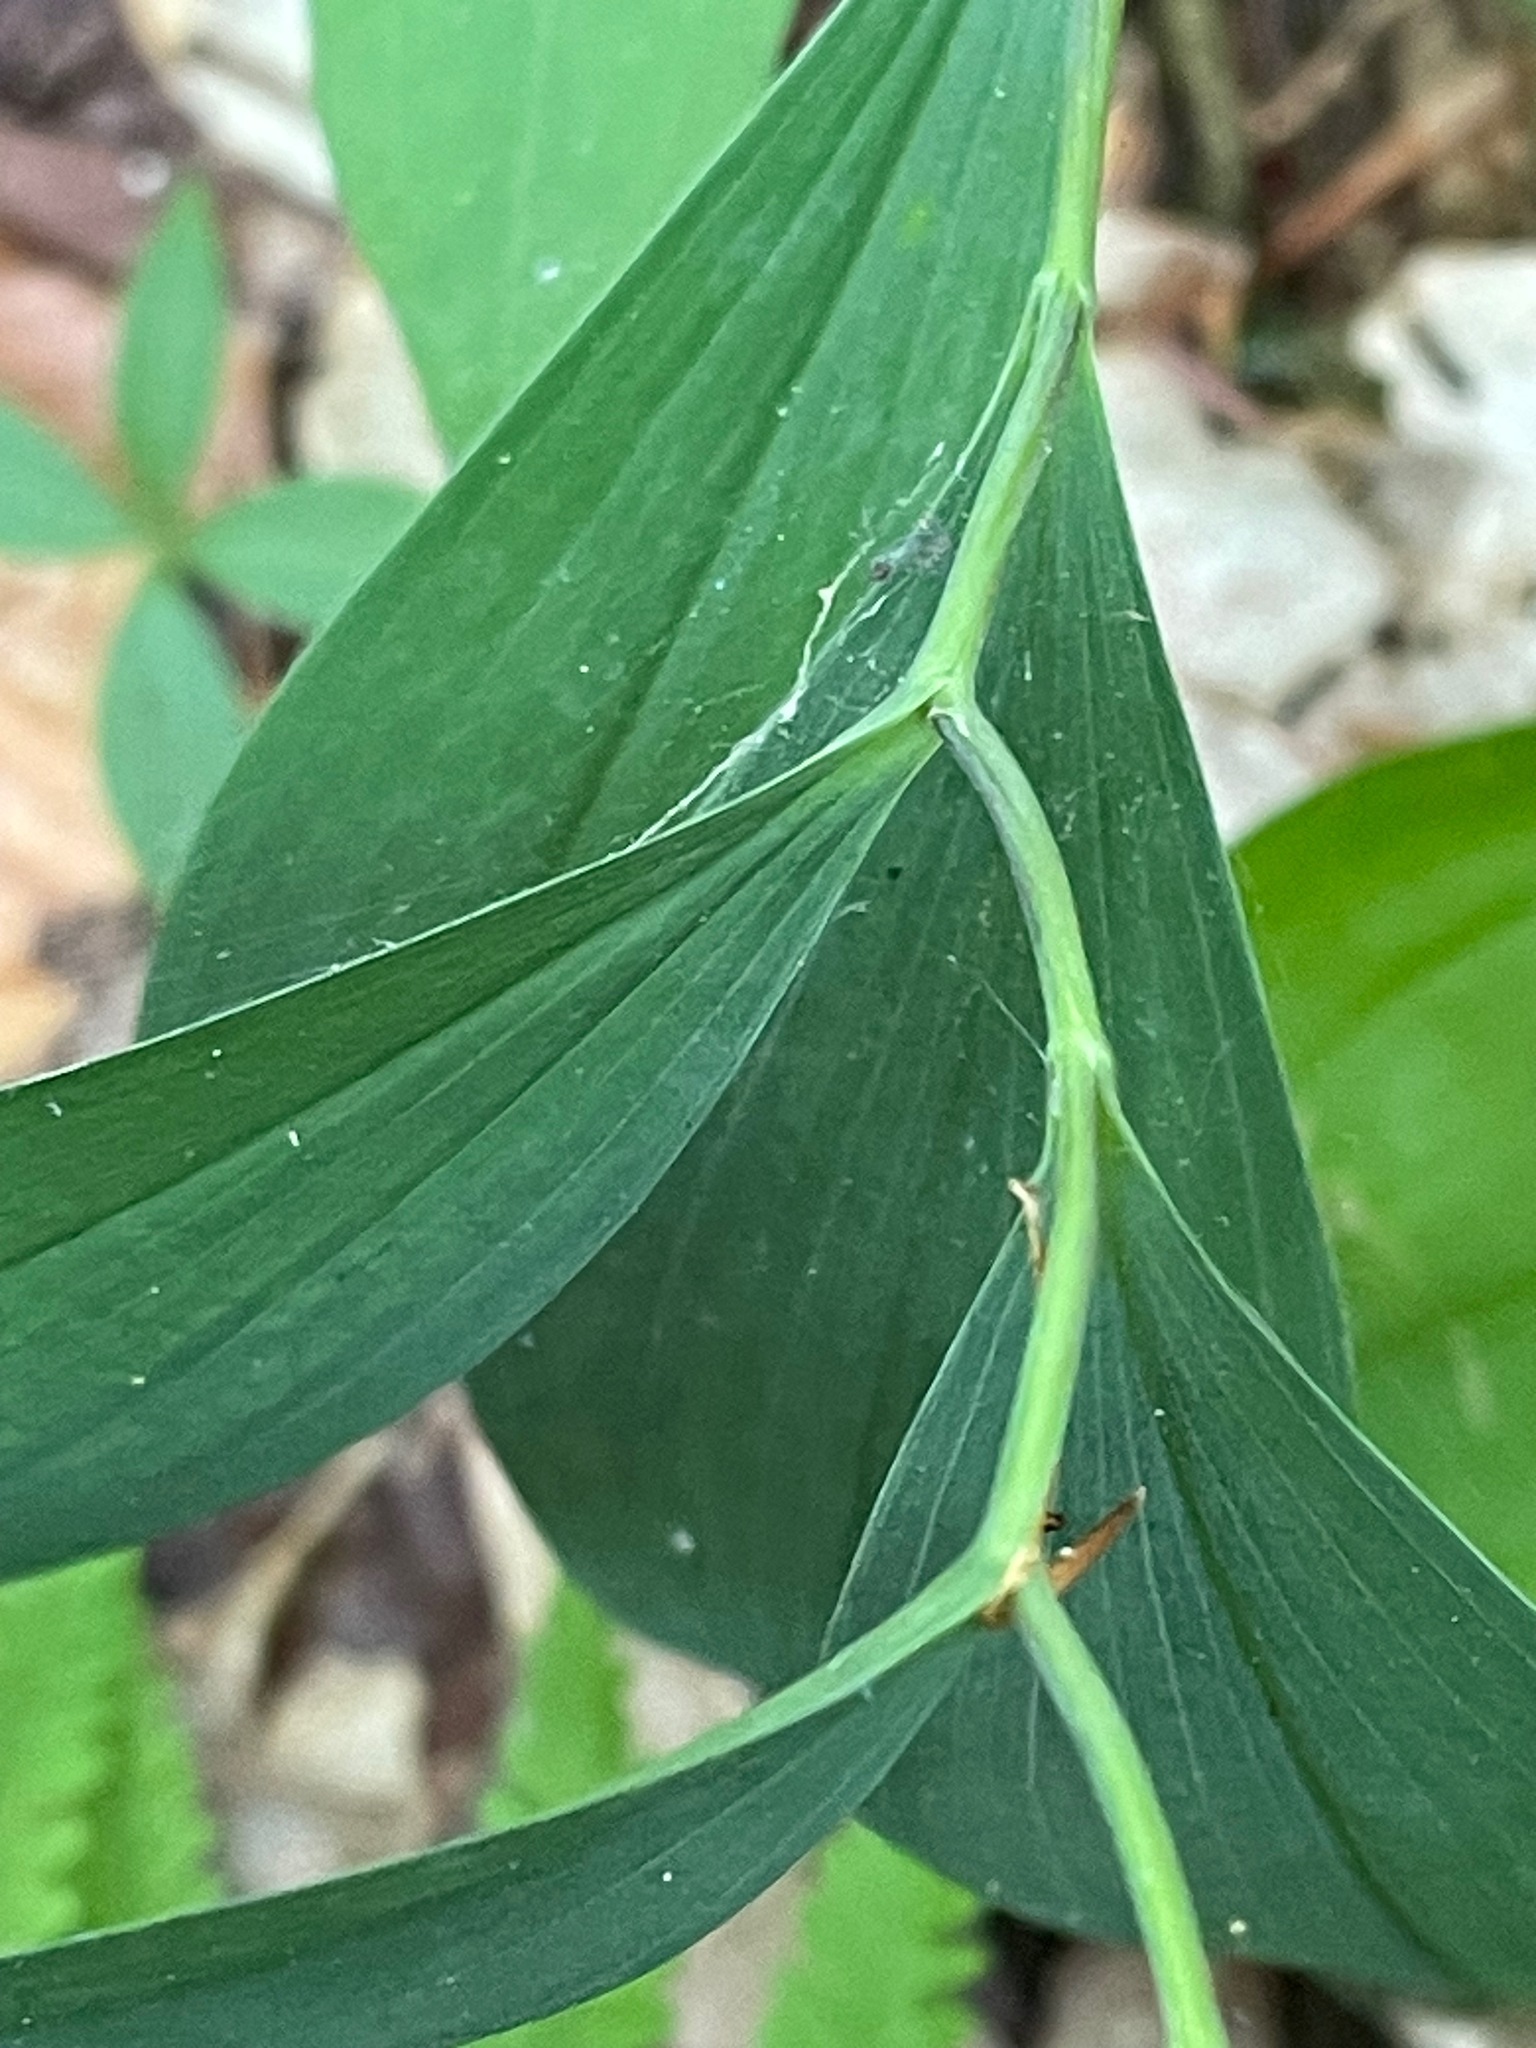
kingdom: Plantae
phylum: Tracheophyta
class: Liliopsida
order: Liliales
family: Colchicaceae
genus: Uvularia
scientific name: Uvularia sessilifolia
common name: Straw-lily
